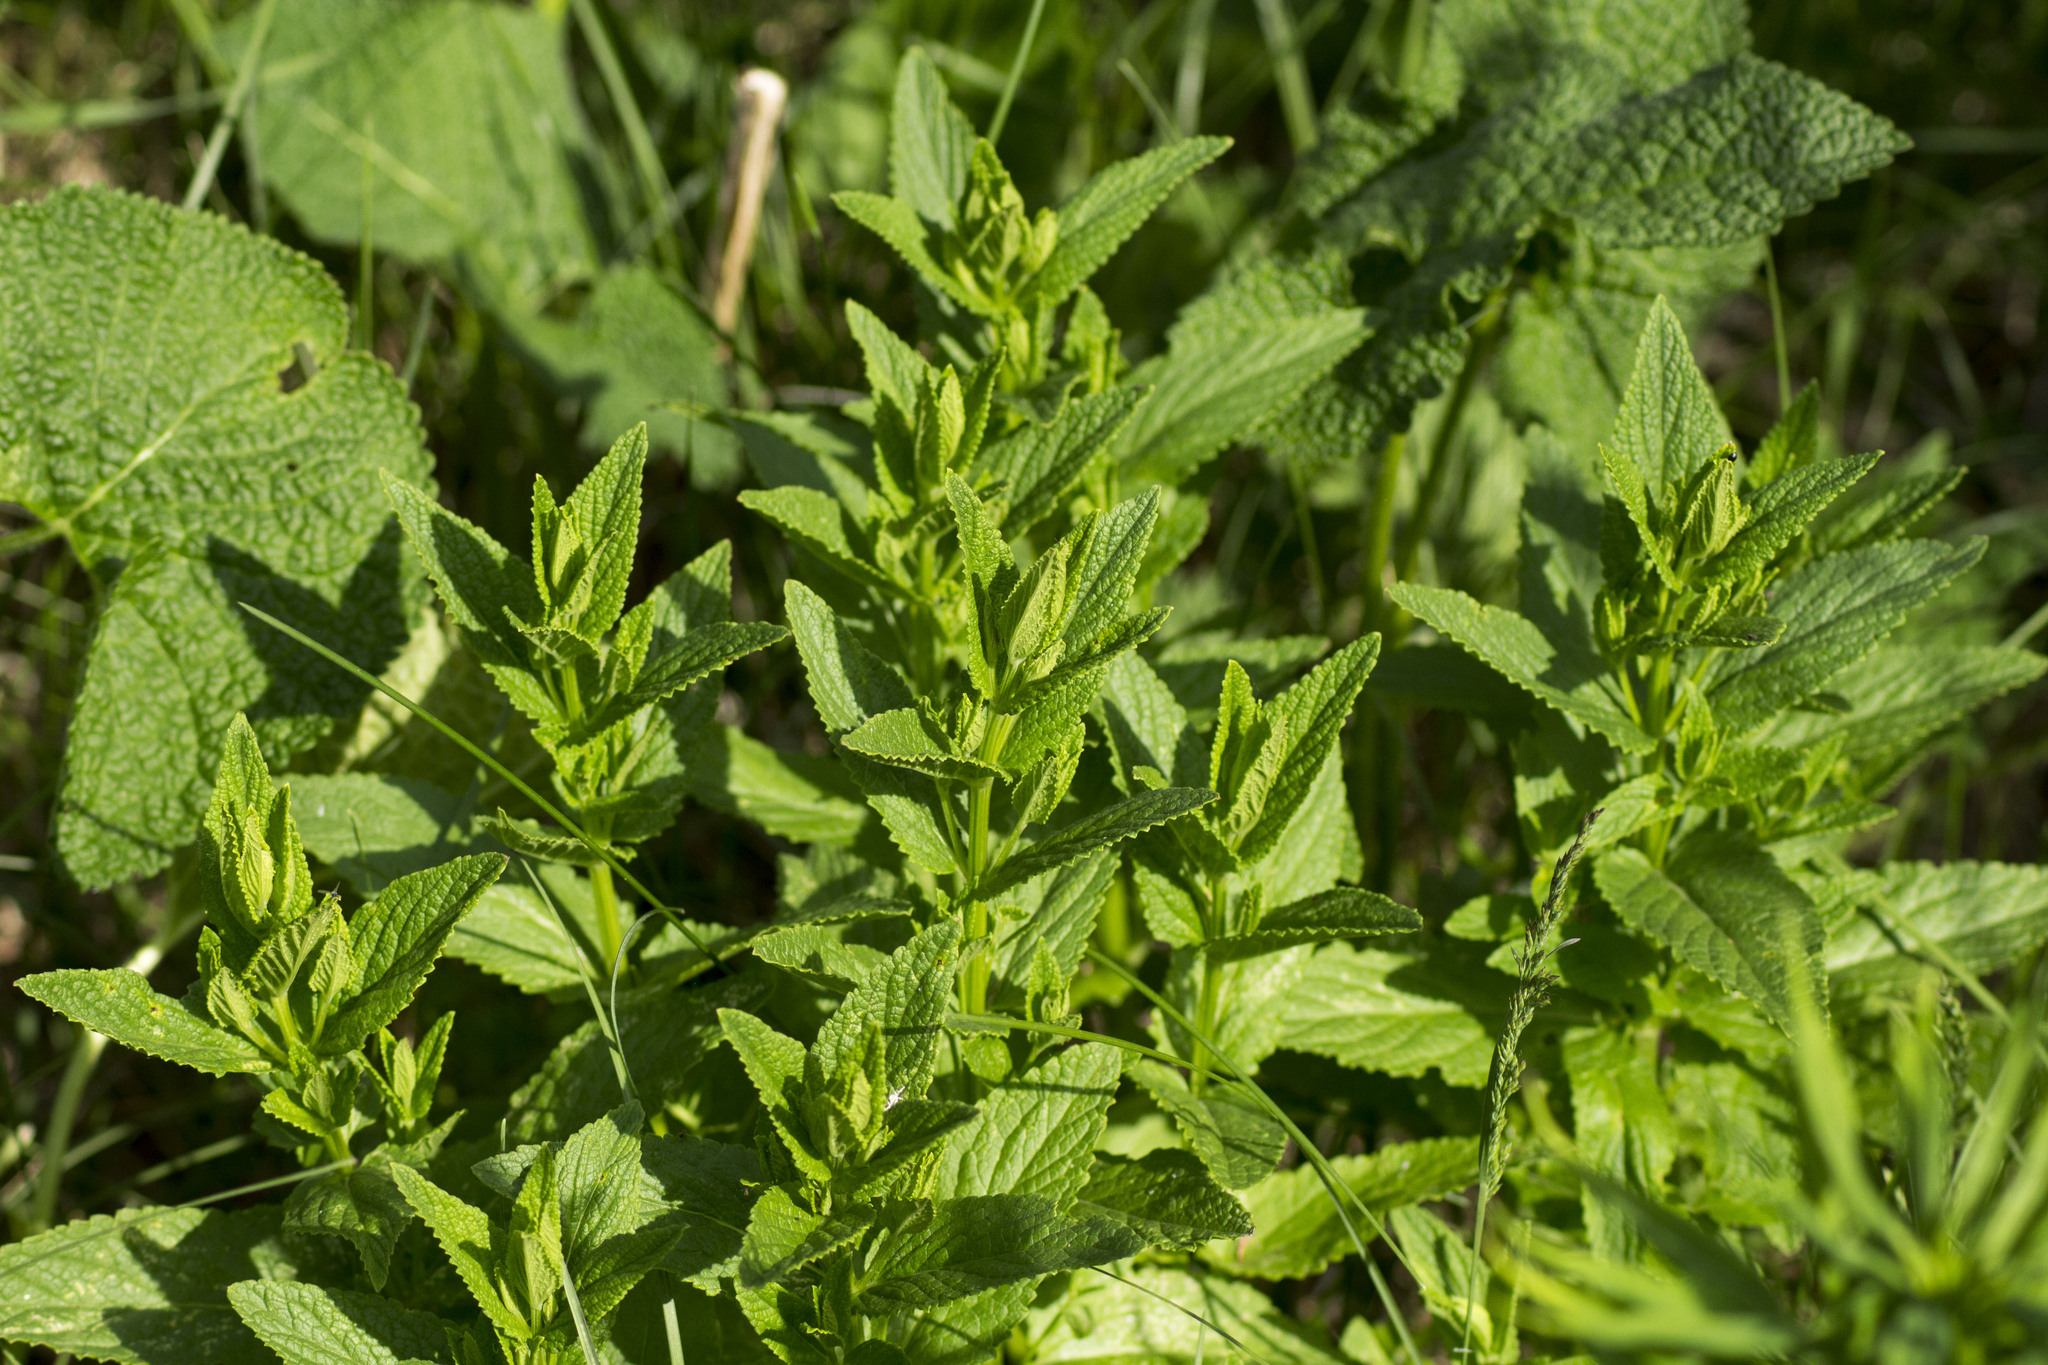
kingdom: Plantae
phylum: Tracheophyta
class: Magnoliopsida
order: Lamiales
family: Lamiaceae
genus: Nepeta
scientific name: Nepeta nuda
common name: Hairless catmint
